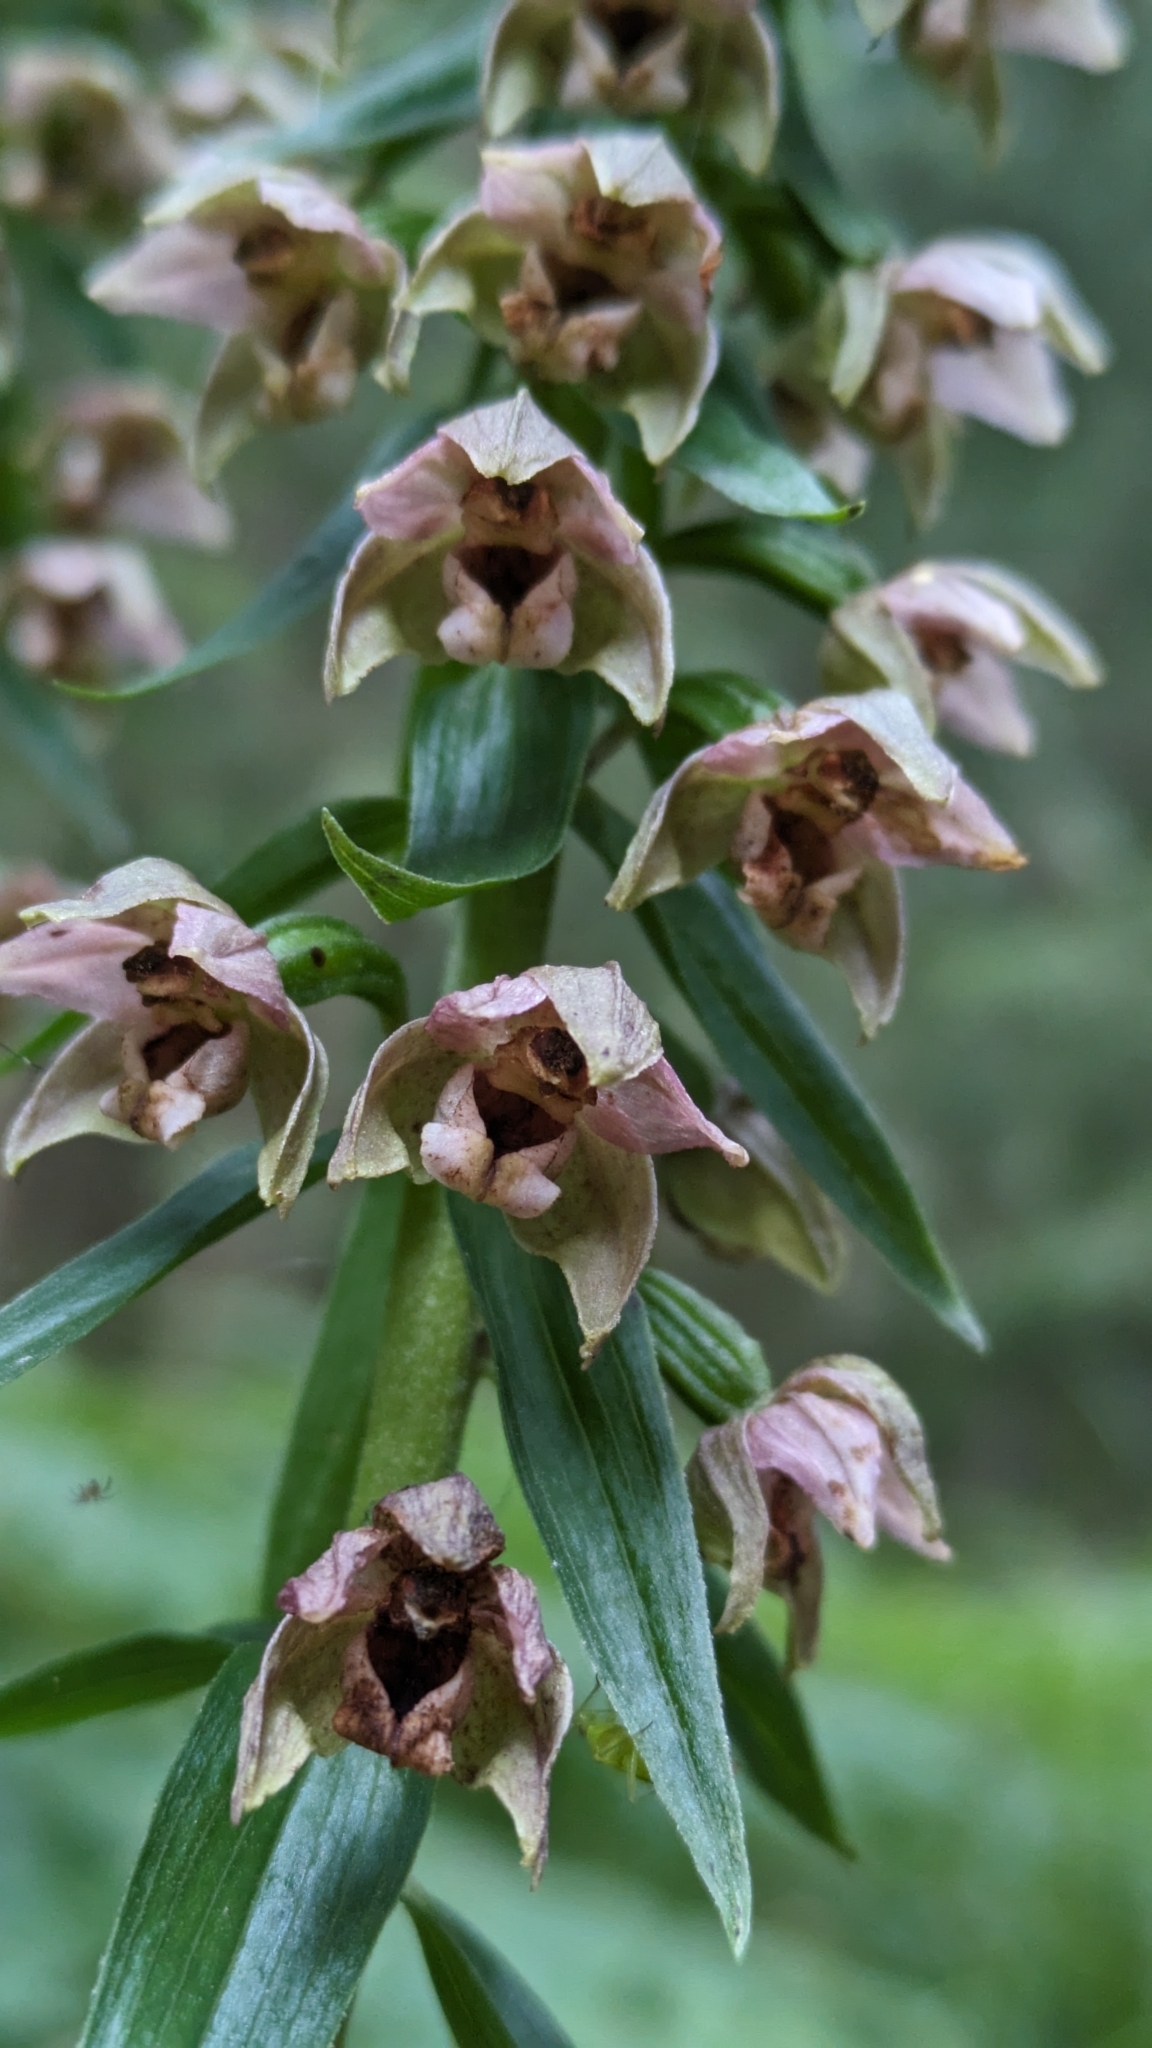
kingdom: Plantae
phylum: Tracheophyta
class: Liliopsida
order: Asparagales
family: Orchidaceae
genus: Epipactis
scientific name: Epipactis helleborine
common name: Broad-leaved helleborine
